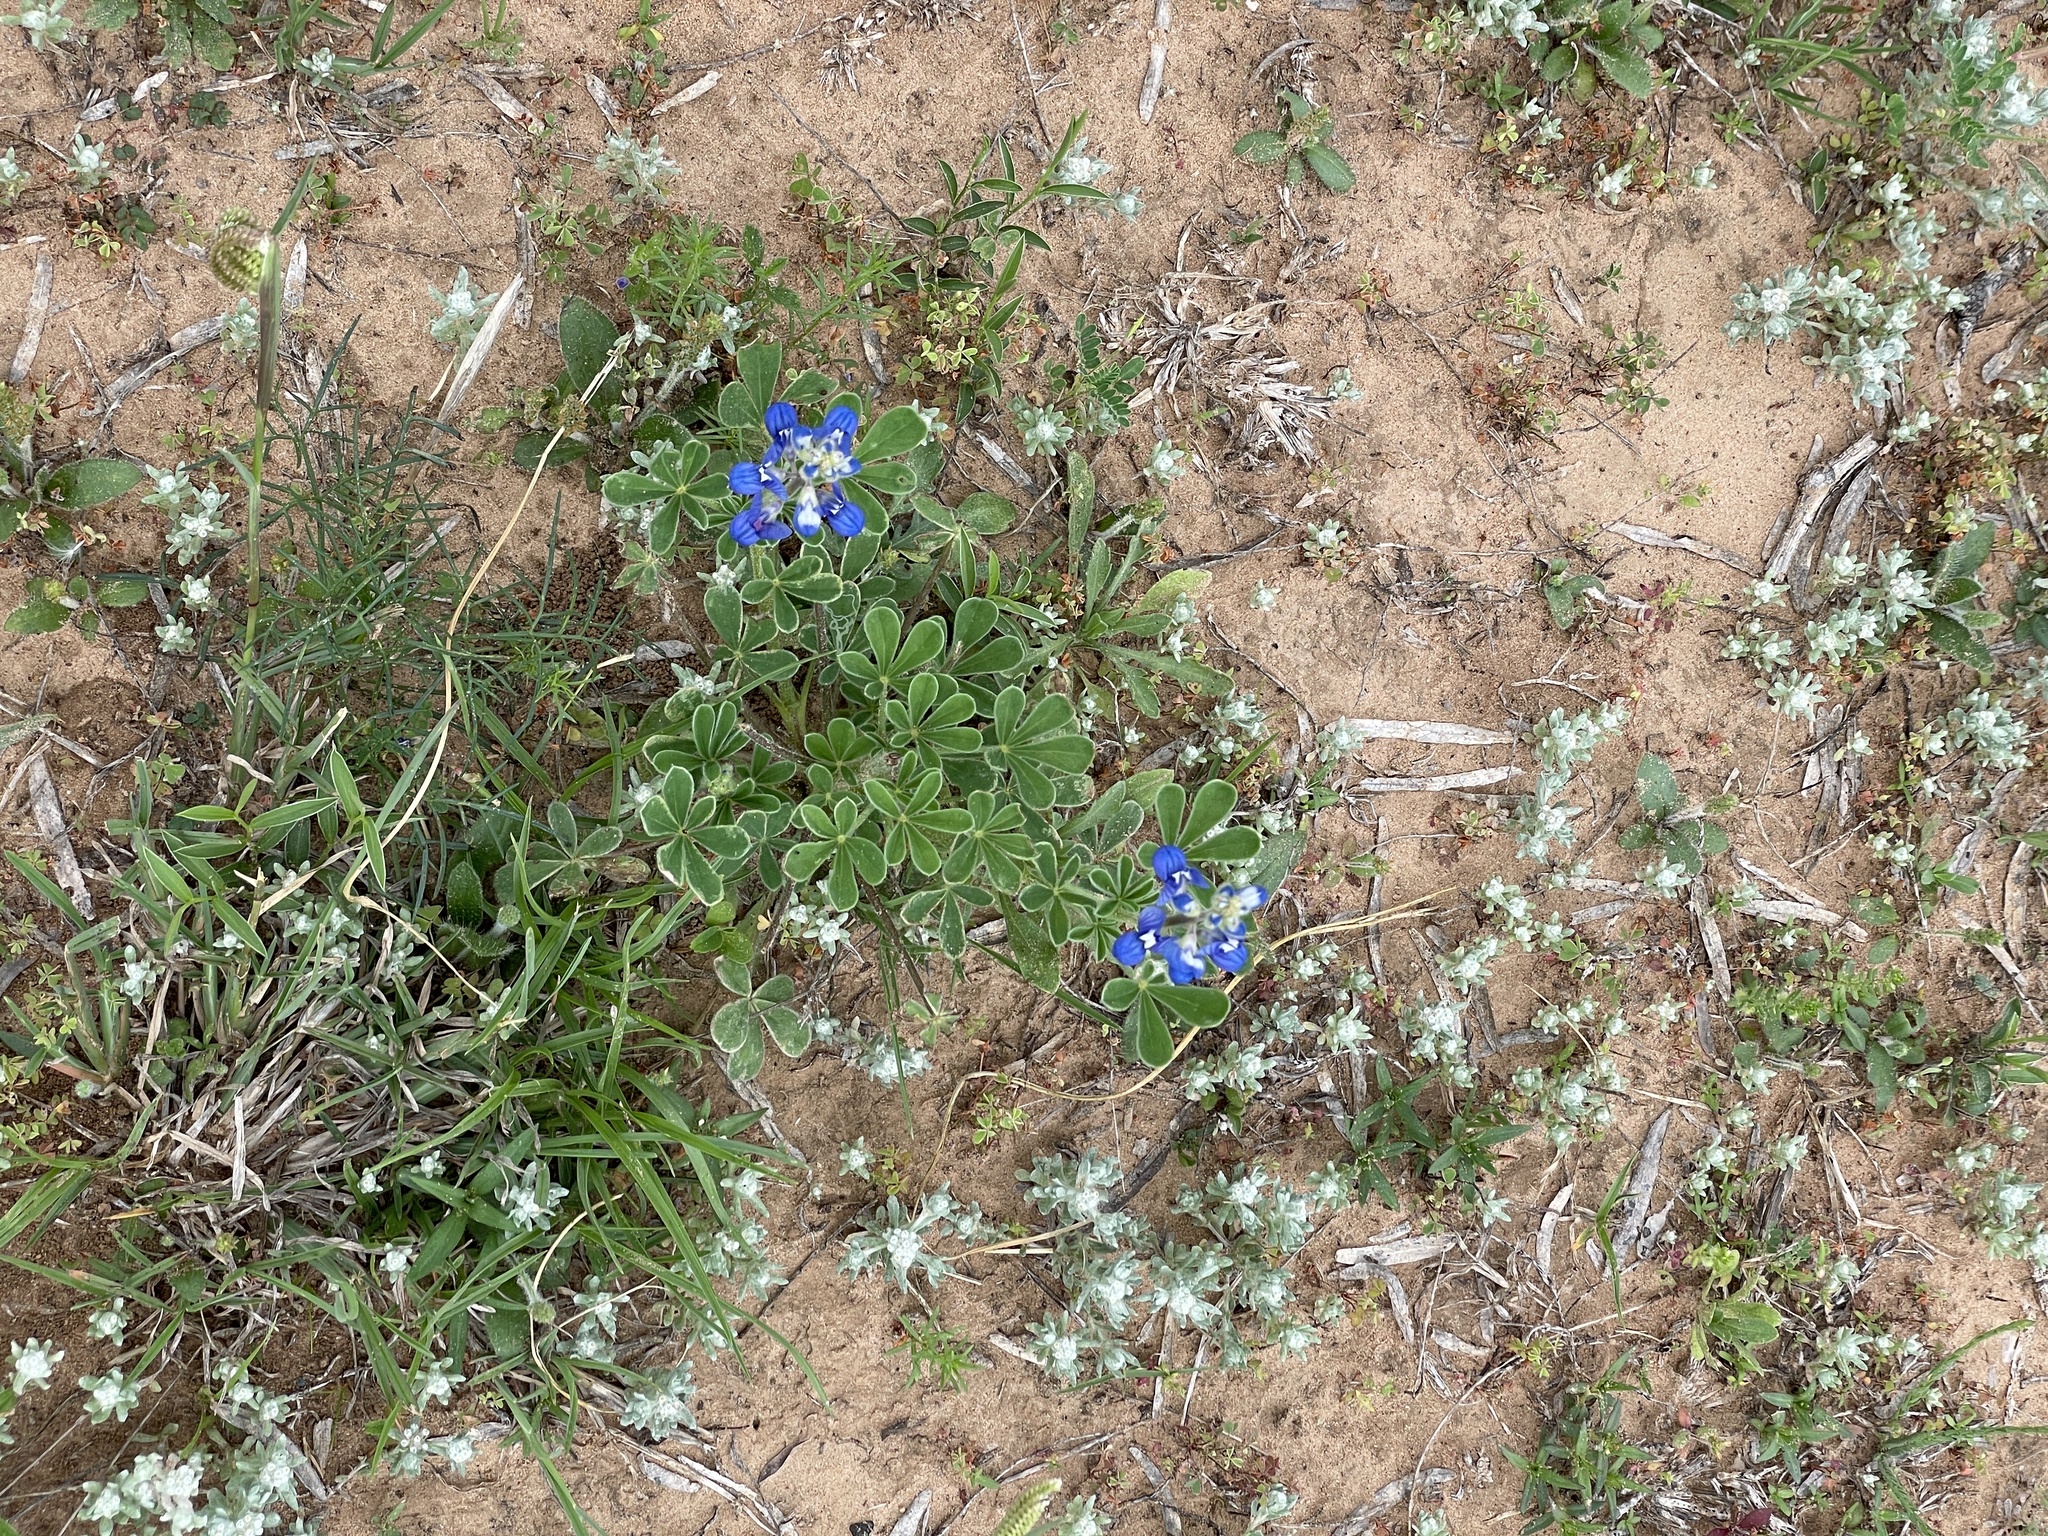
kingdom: Plantae
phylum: Tracheophyta
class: Magnoliopsida
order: Fabales
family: Fabaceae
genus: Lupinus
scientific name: Lupinus subcarnosus
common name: Texas bluebonnet
